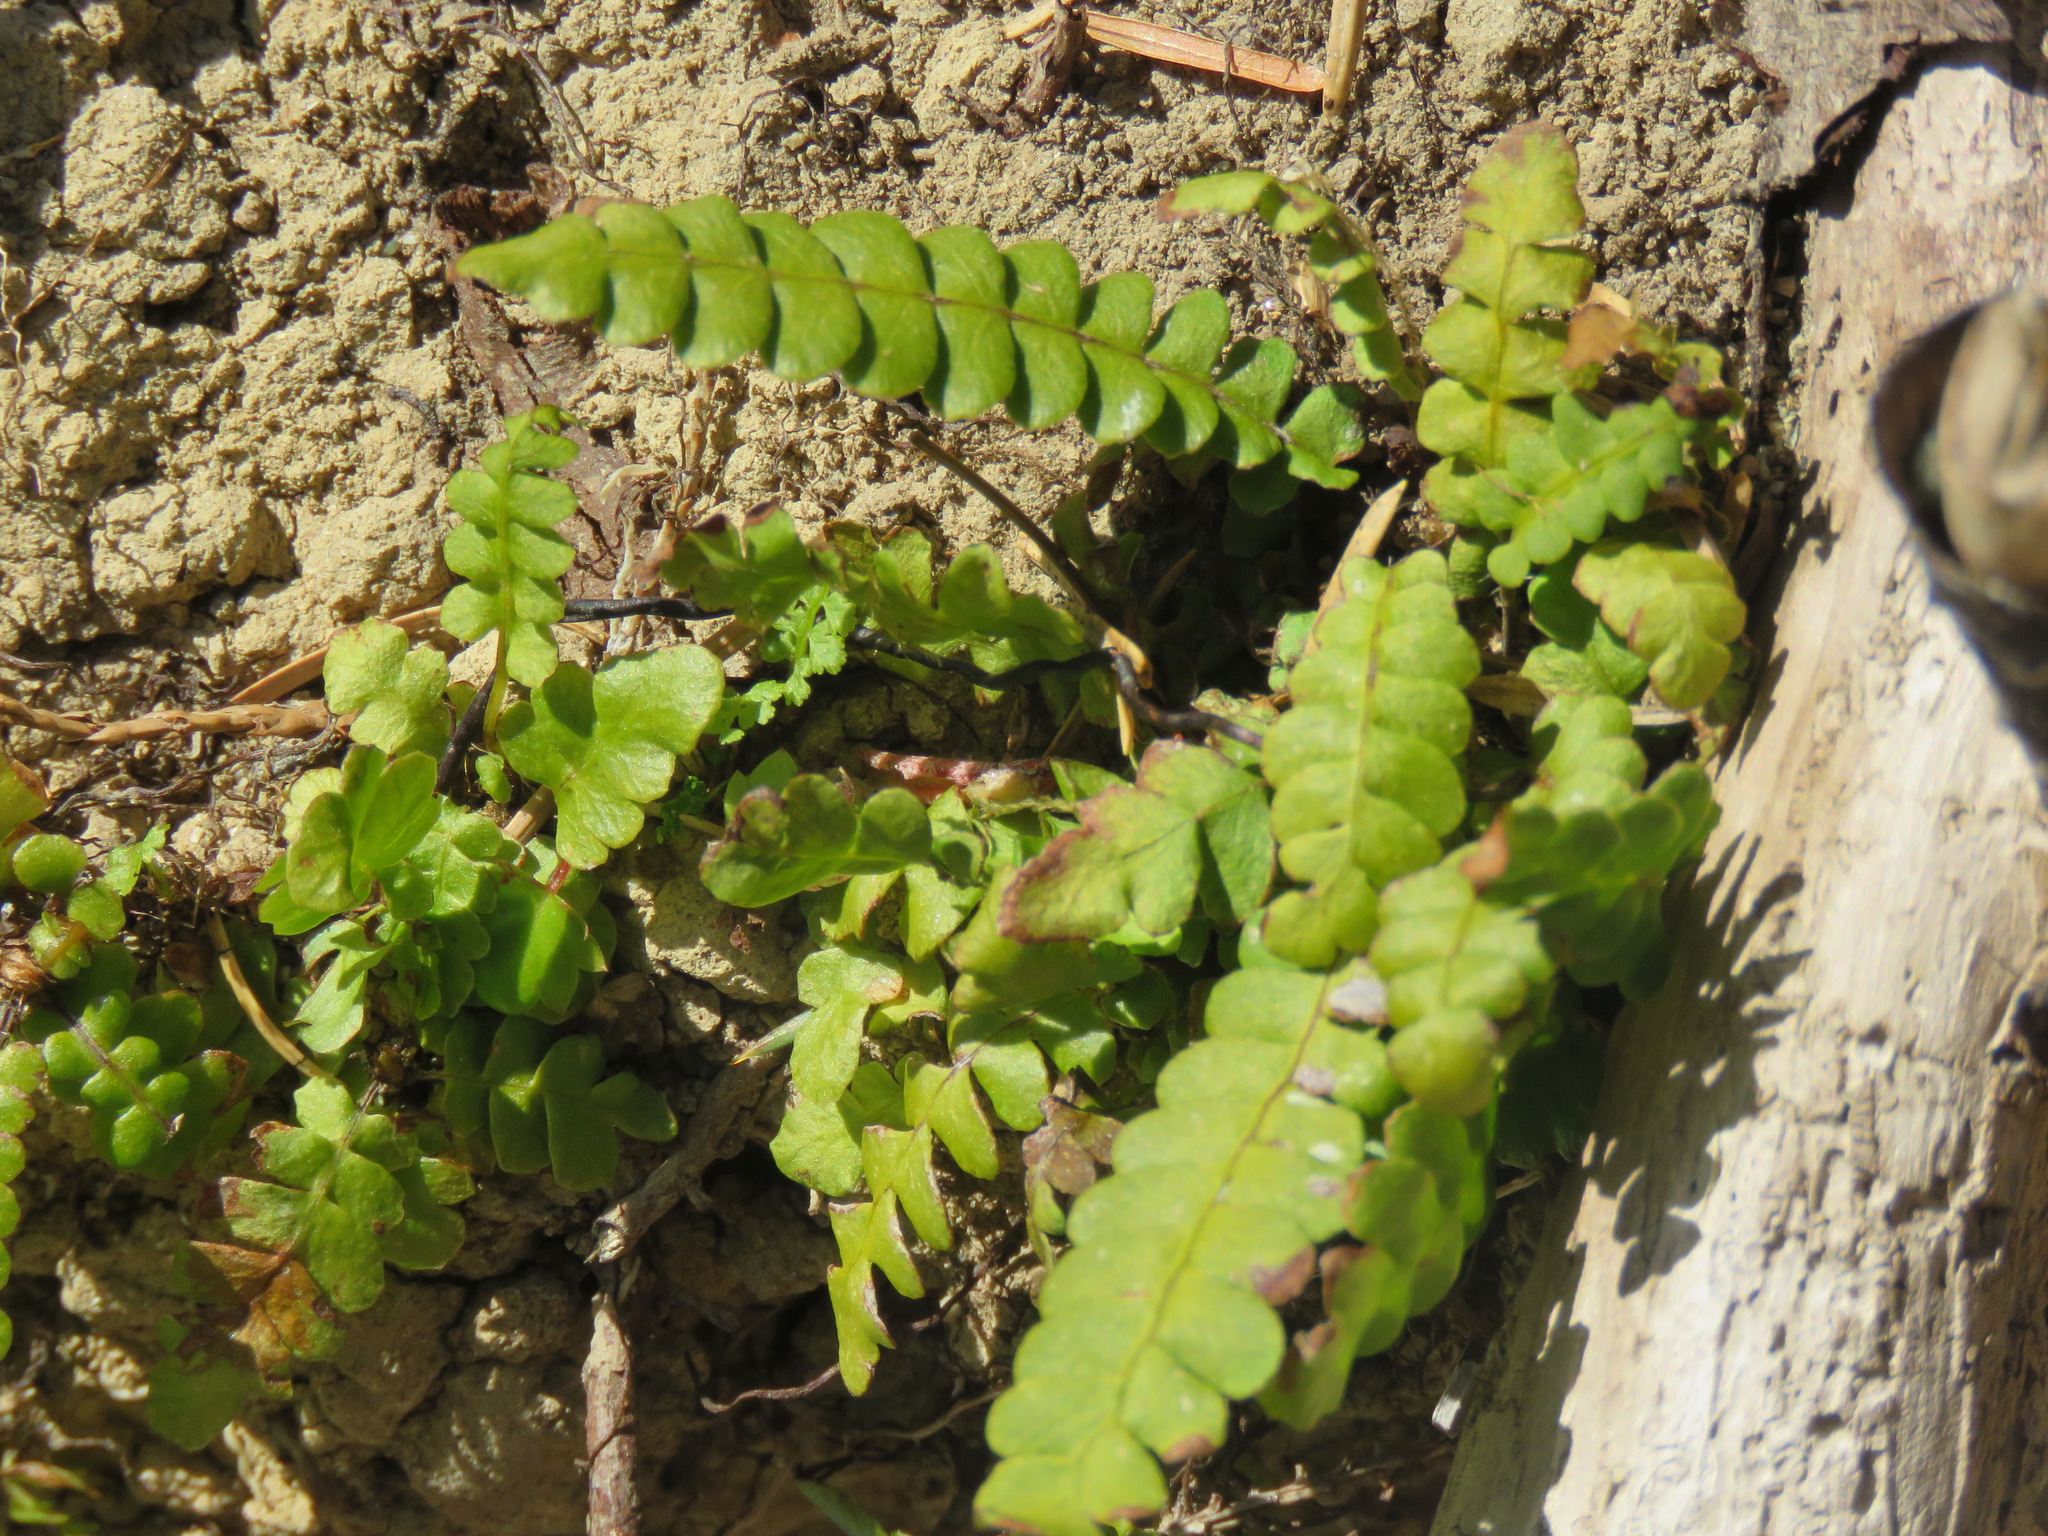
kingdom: Plantae
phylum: Tracheophyta
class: Polypodiopsida
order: Polypodiales
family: Blechnaceae
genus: Struthiopteris
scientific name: Struthiopteris spicant
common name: Deer fern
